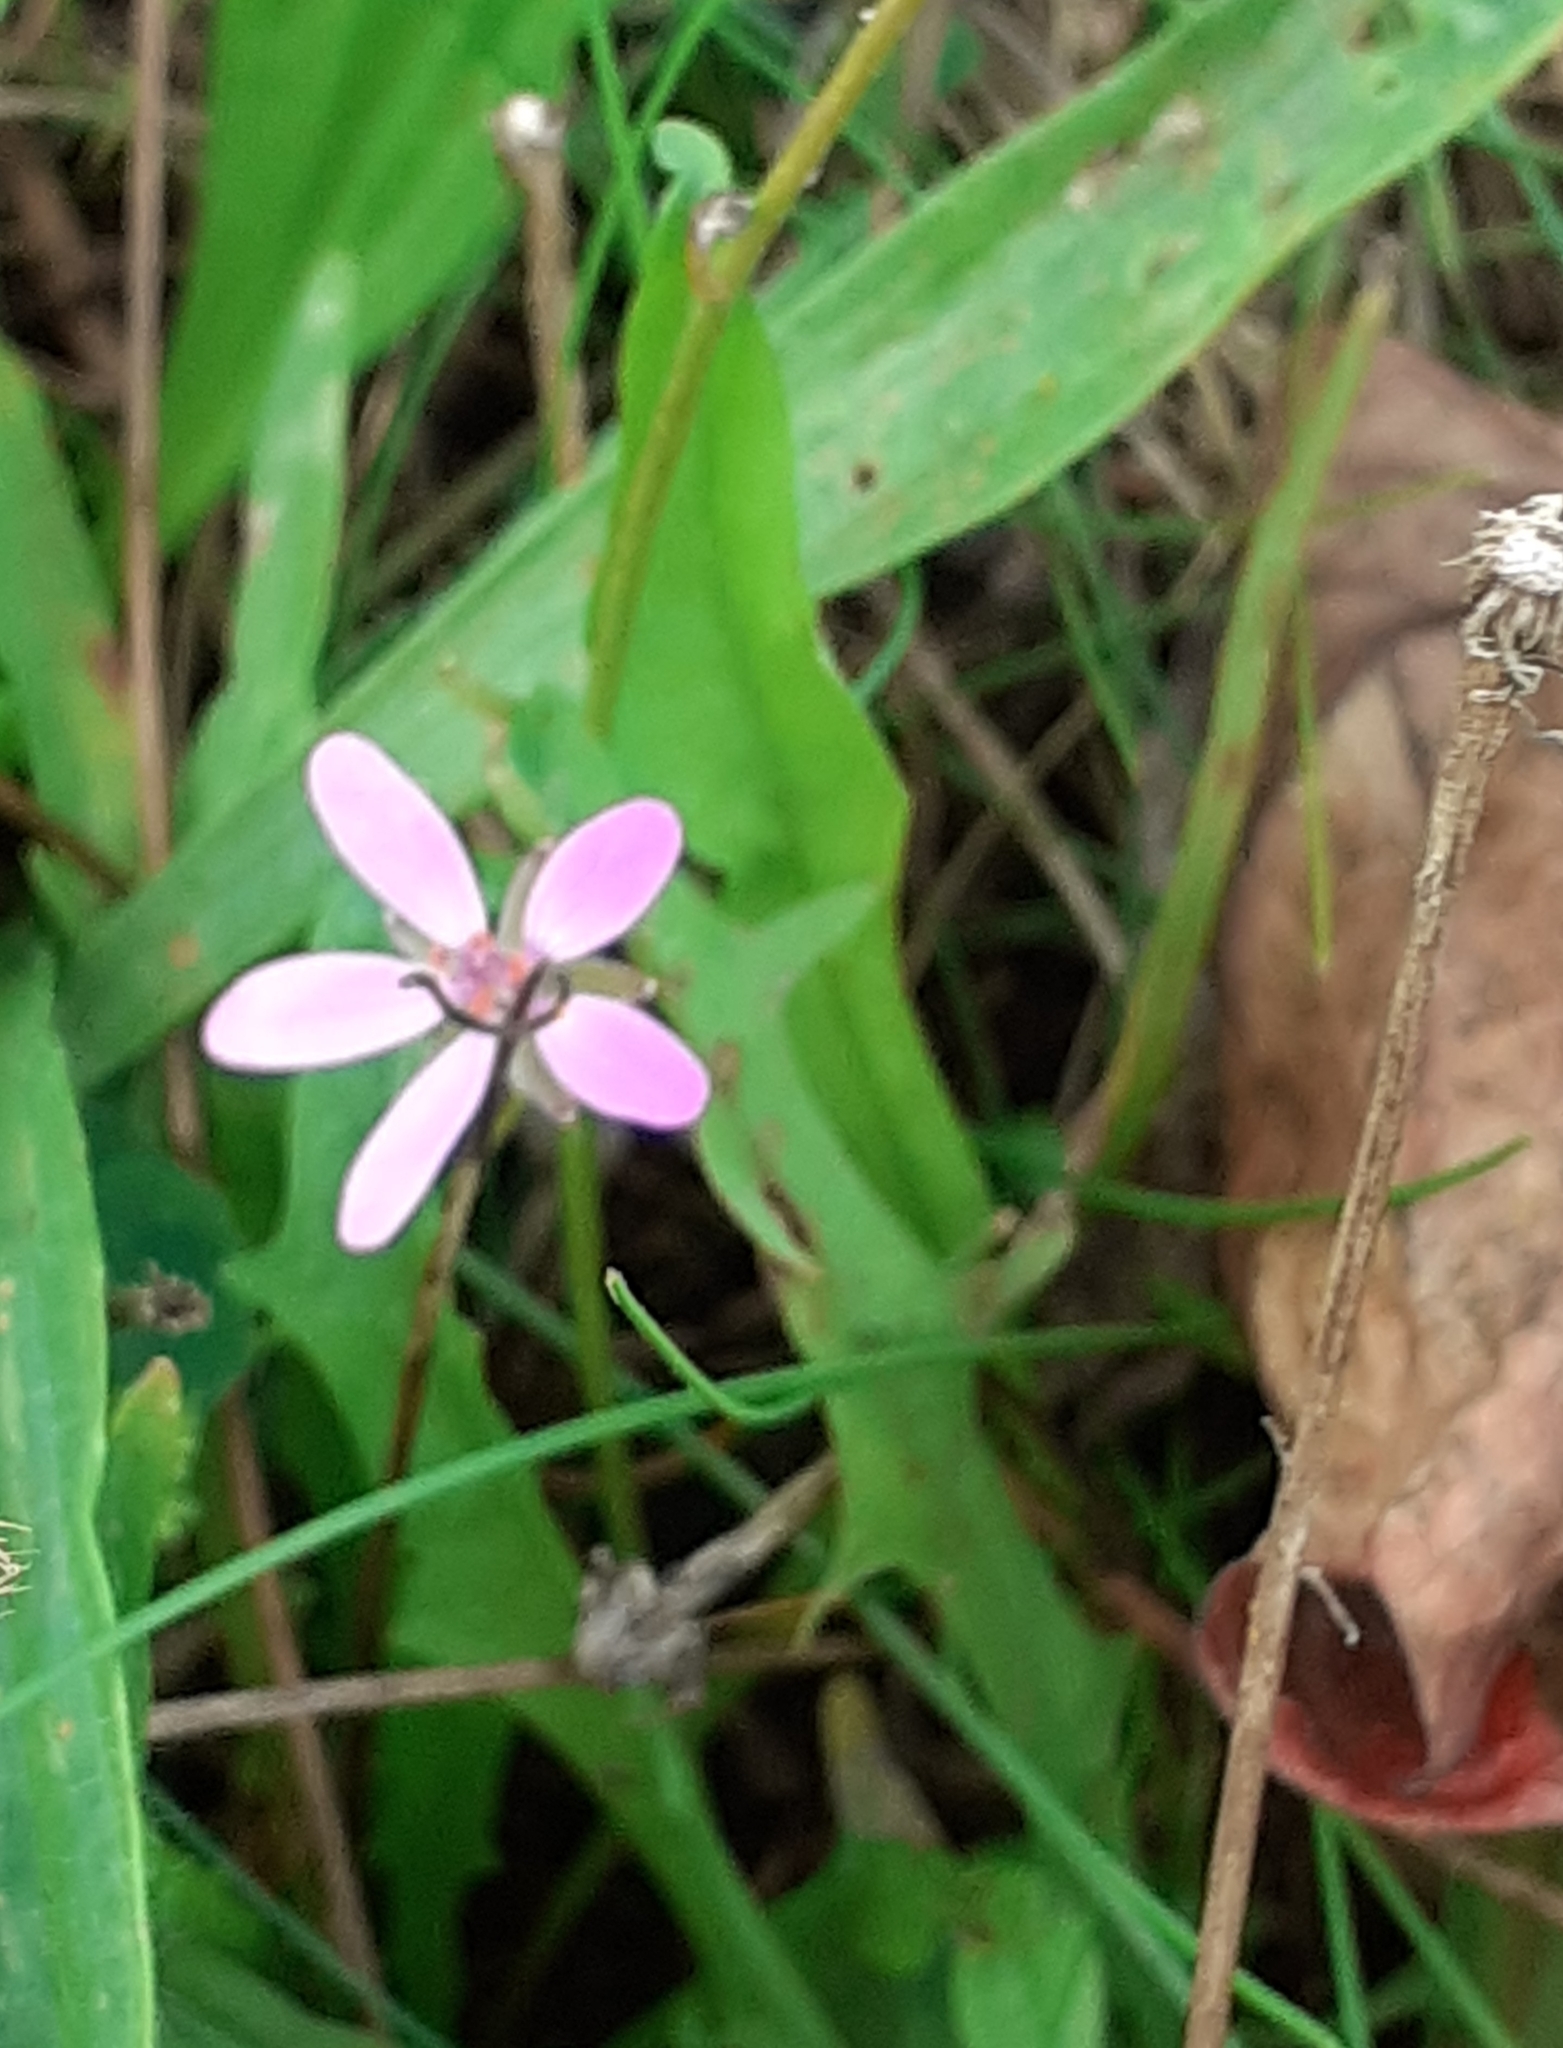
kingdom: Plantae
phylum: Tracheophyta
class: Magnoliopsida
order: Geraniales
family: Geraniaceae
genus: Erodium
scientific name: Erodium cicutarium
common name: Common stork's-bill
